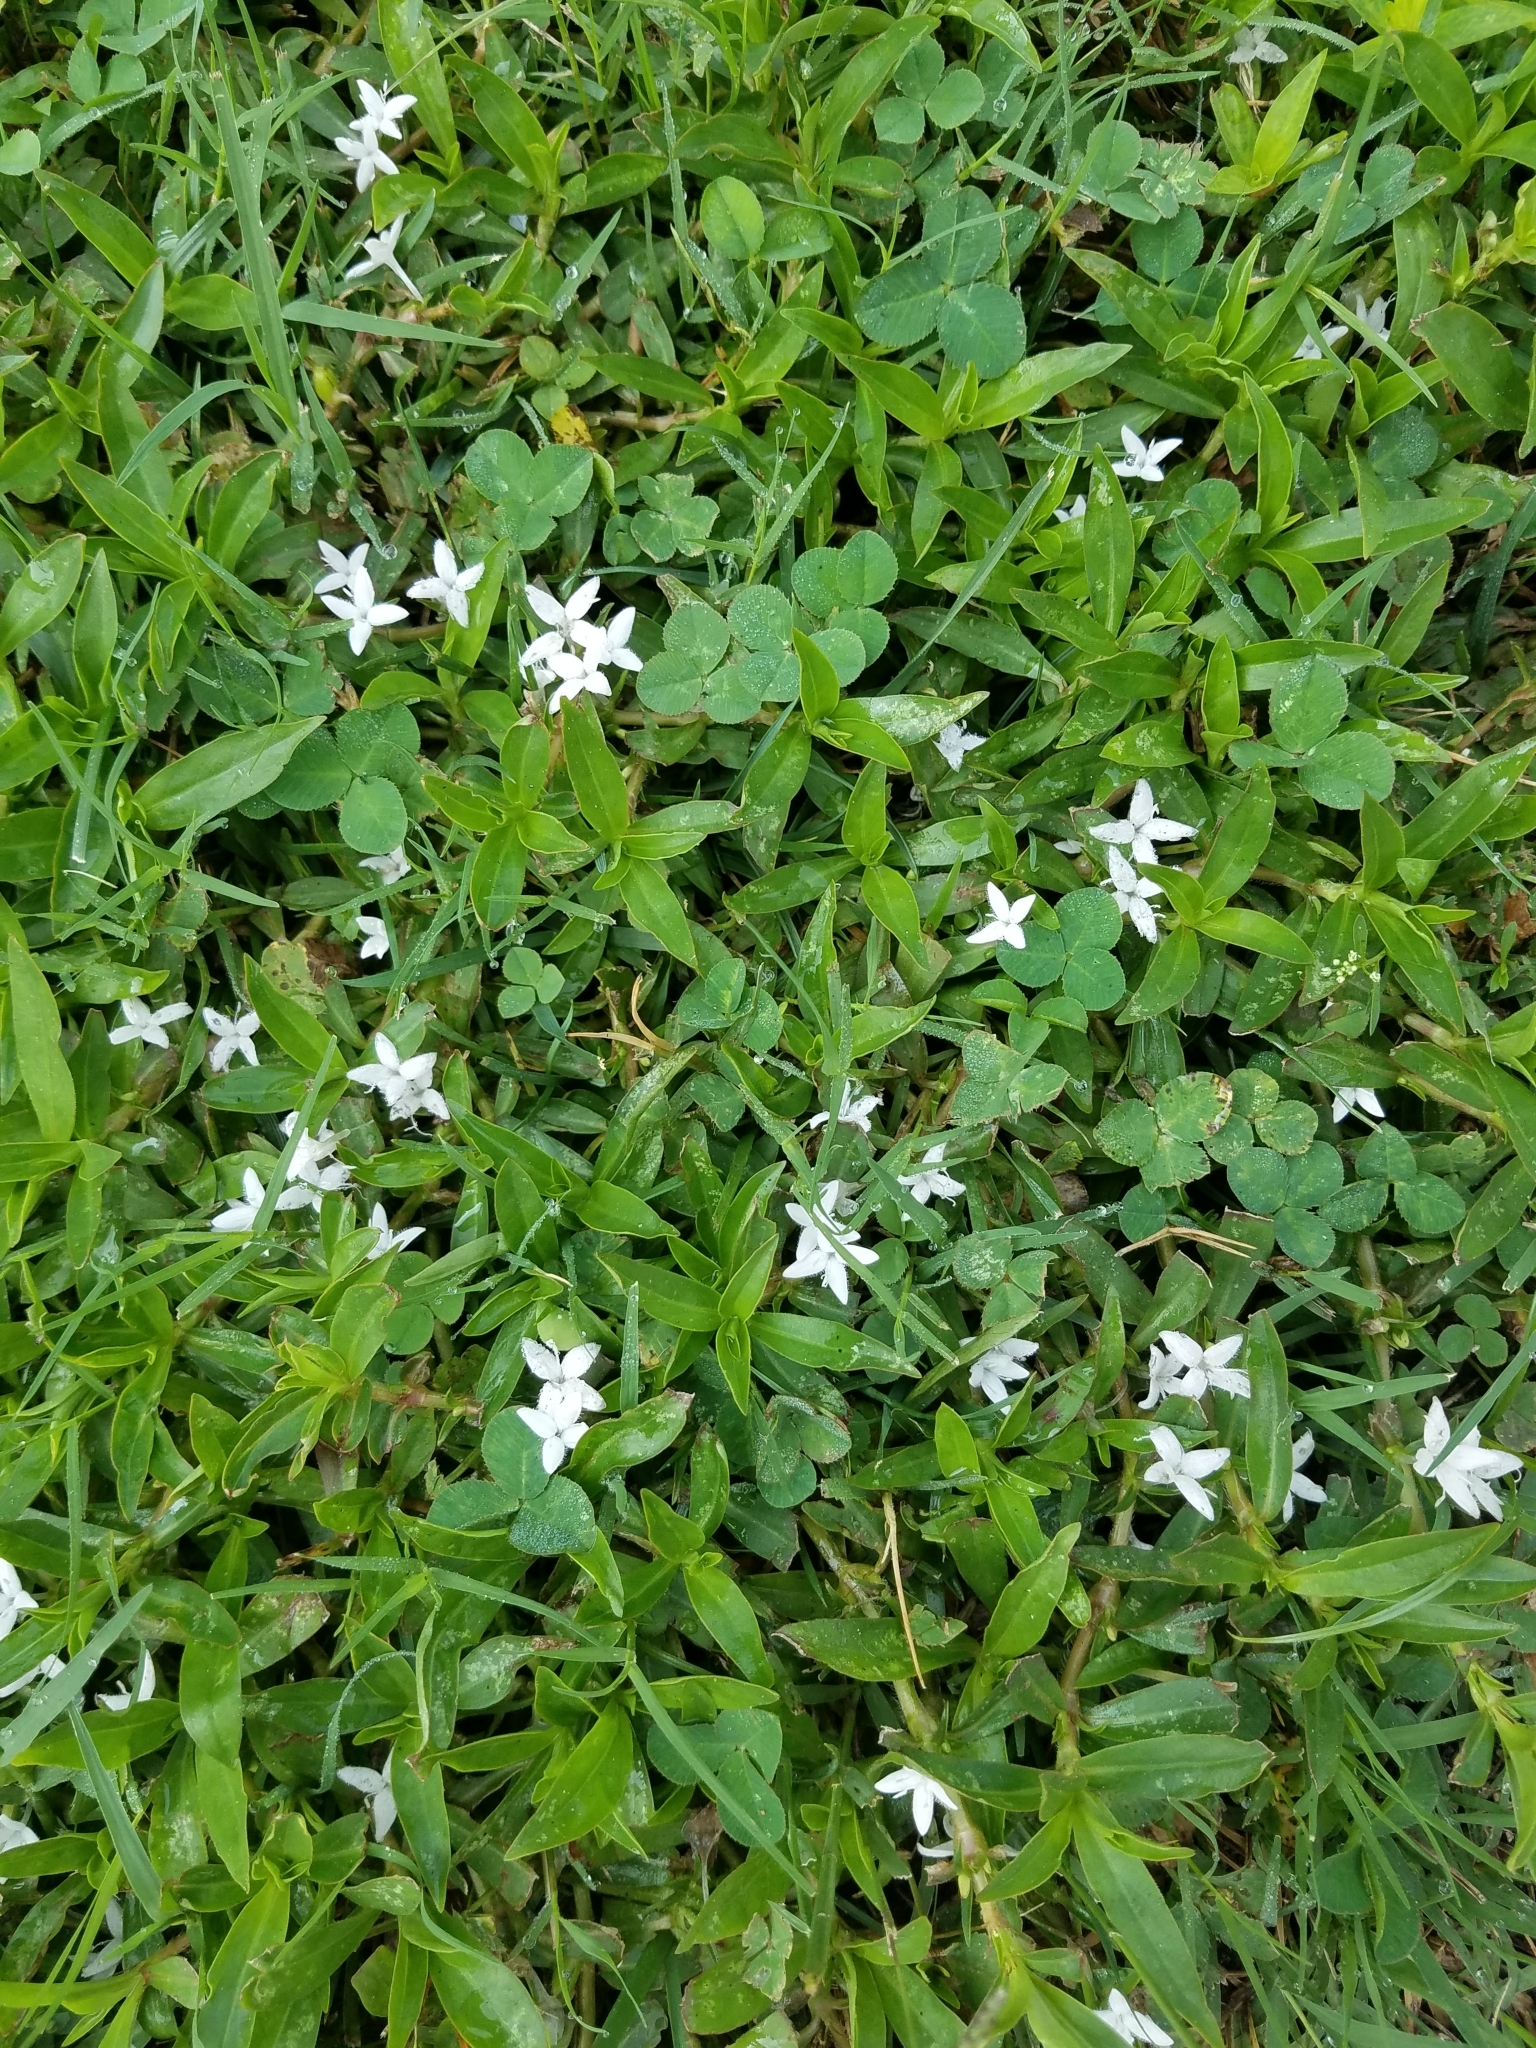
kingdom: Plantae
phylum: Tracheophyta
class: Magnoliopsida
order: Gentianales
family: Rubiaceae
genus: Diodia
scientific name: Diodia virginiana
